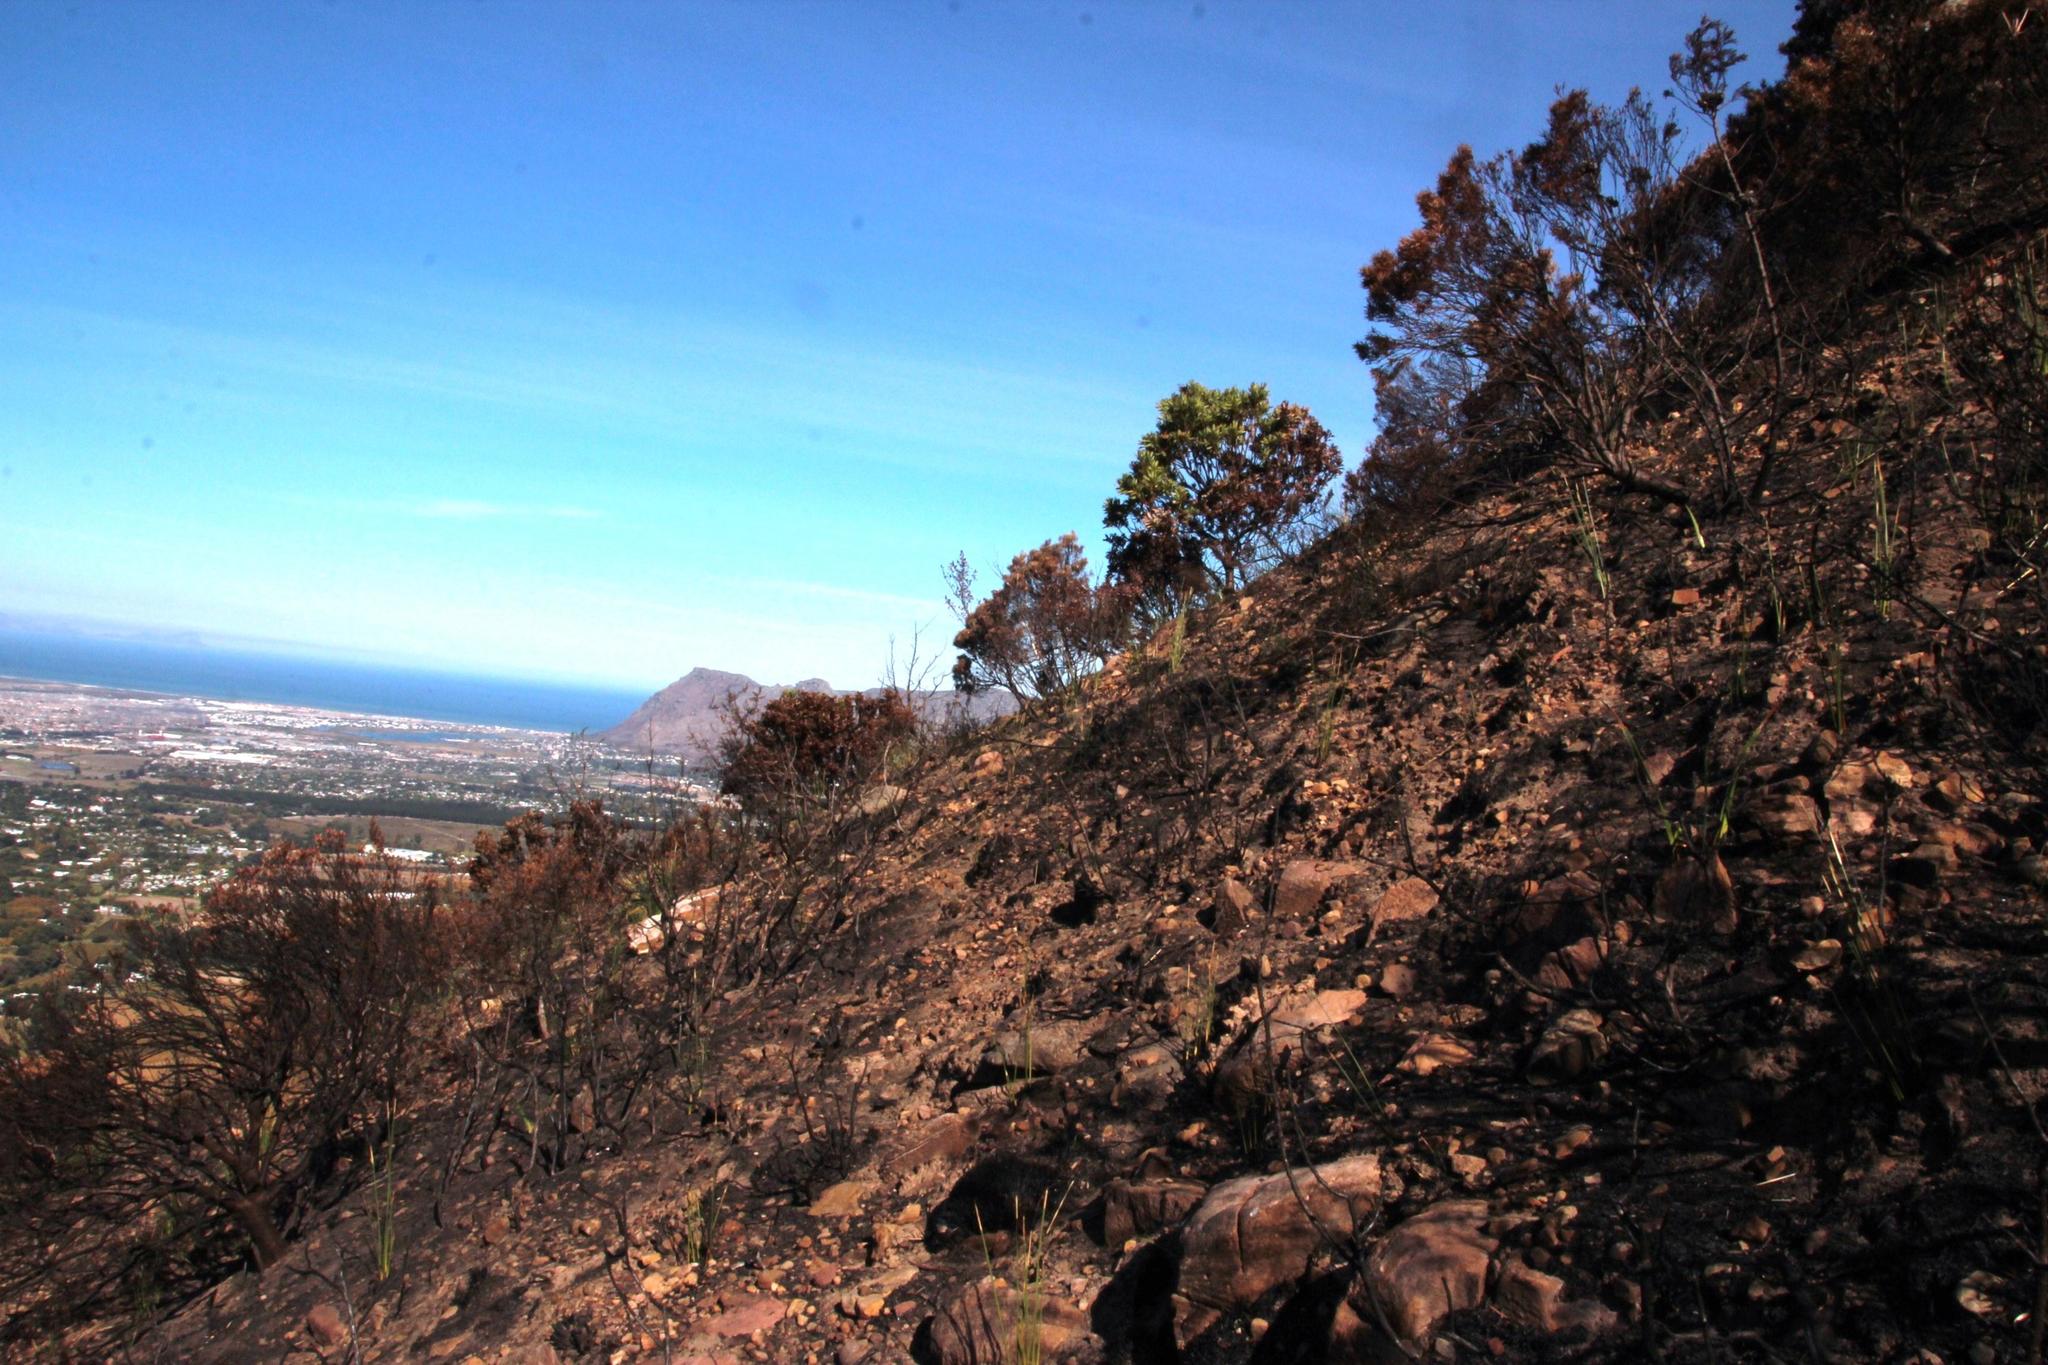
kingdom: Plantae
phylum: Tracheophyta
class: Magnoliopsida
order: Proteales
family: Proteaceae
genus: Protea
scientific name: Protea lepidocarpodendron
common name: Black-bearded protea
